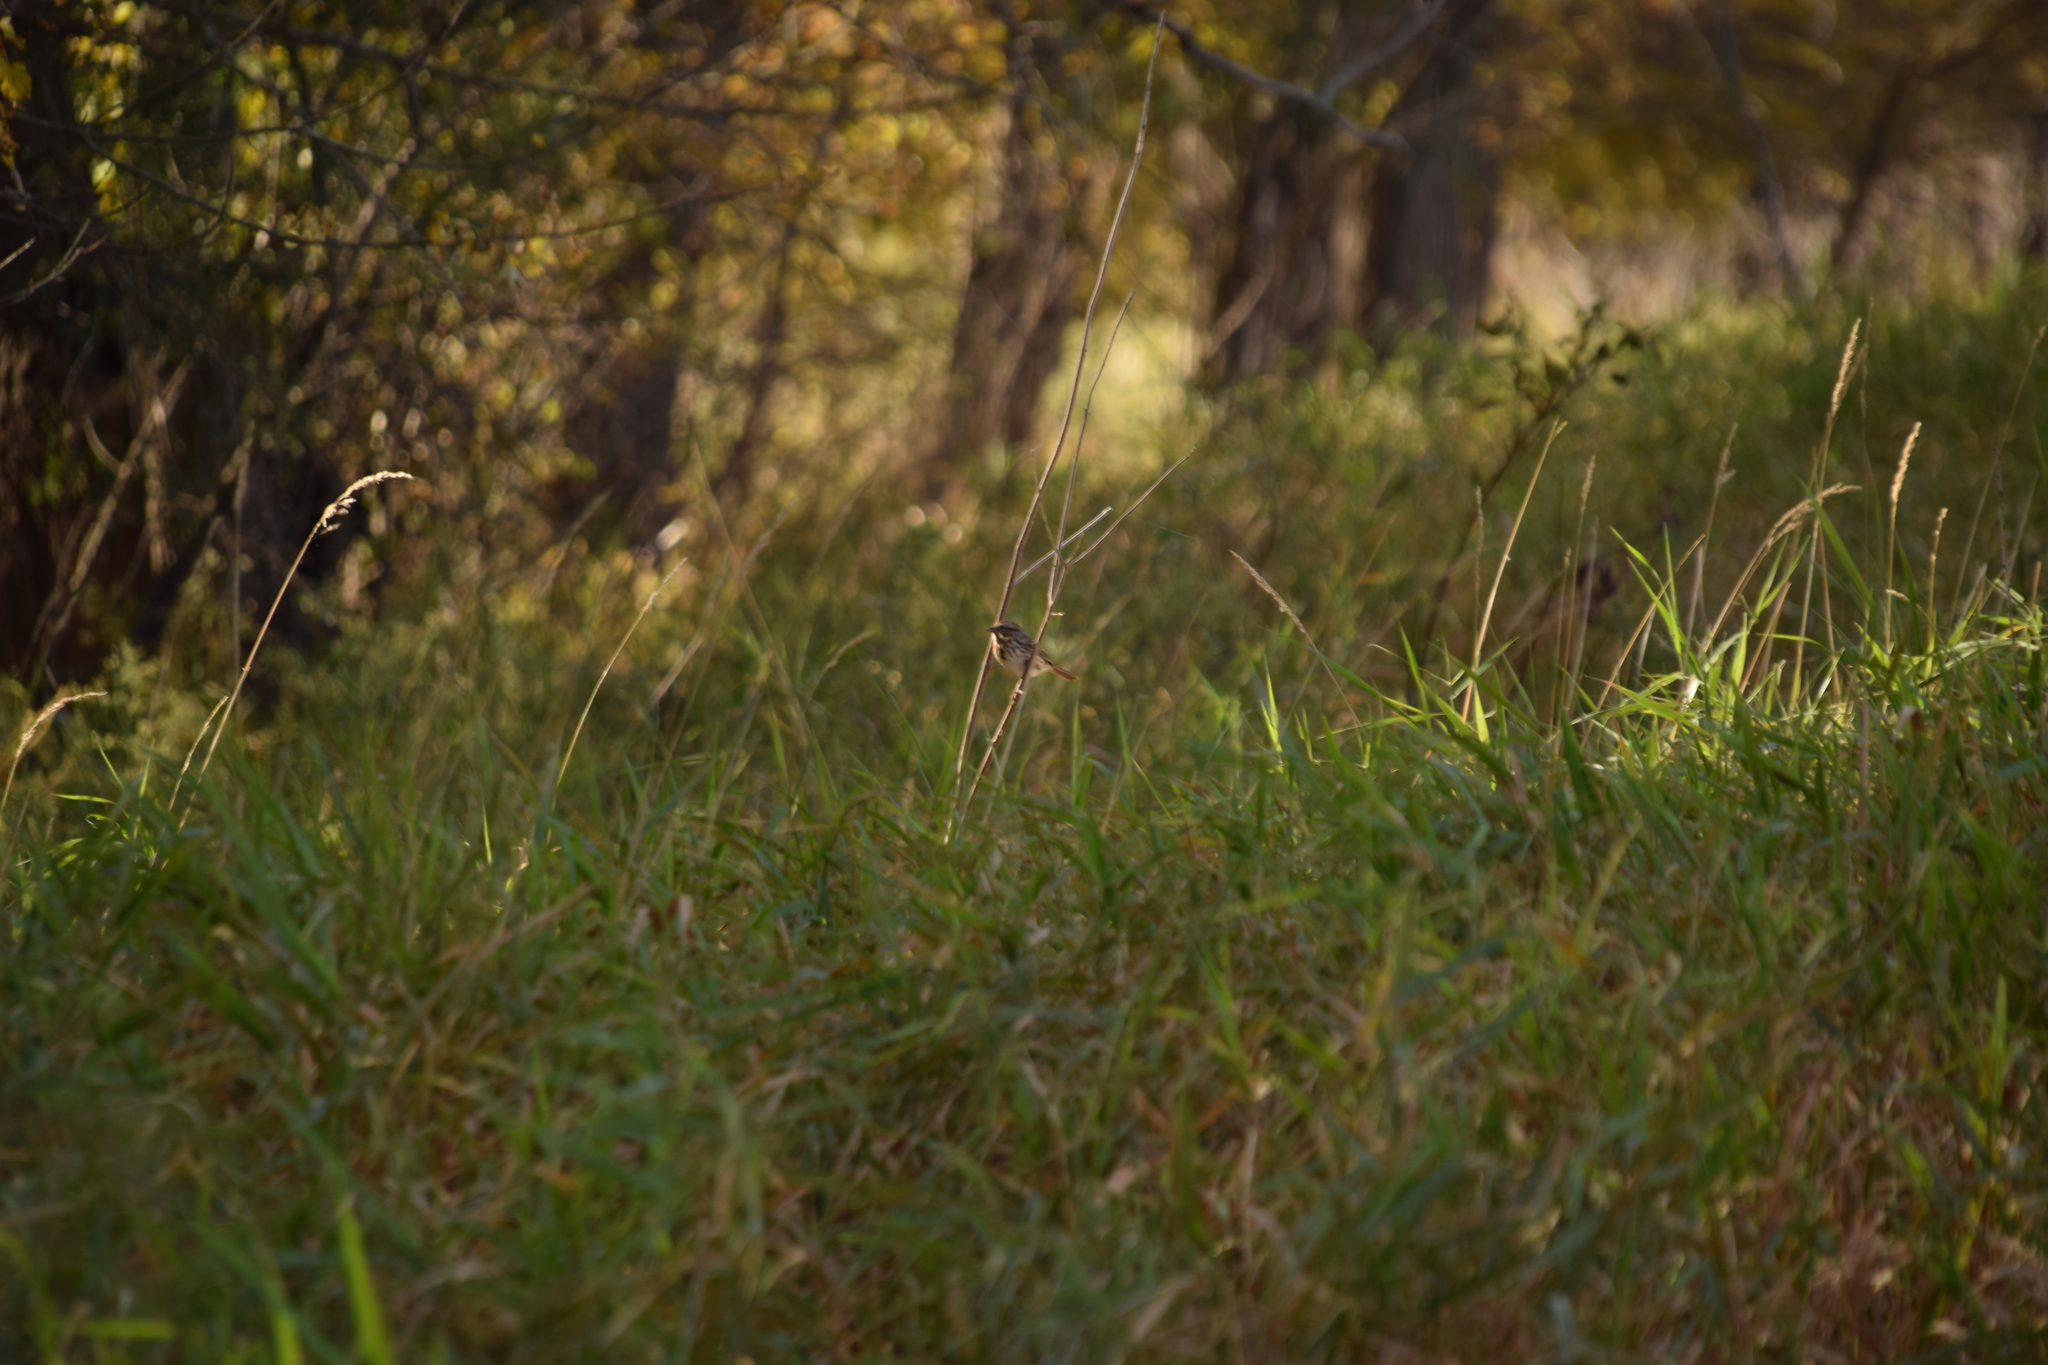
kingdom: Animalia
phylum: Chordata
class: Aves
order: Passeriformes
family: Passerellidae
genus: Melospiza
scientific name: Melospiza melodia
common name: Song sparrow
